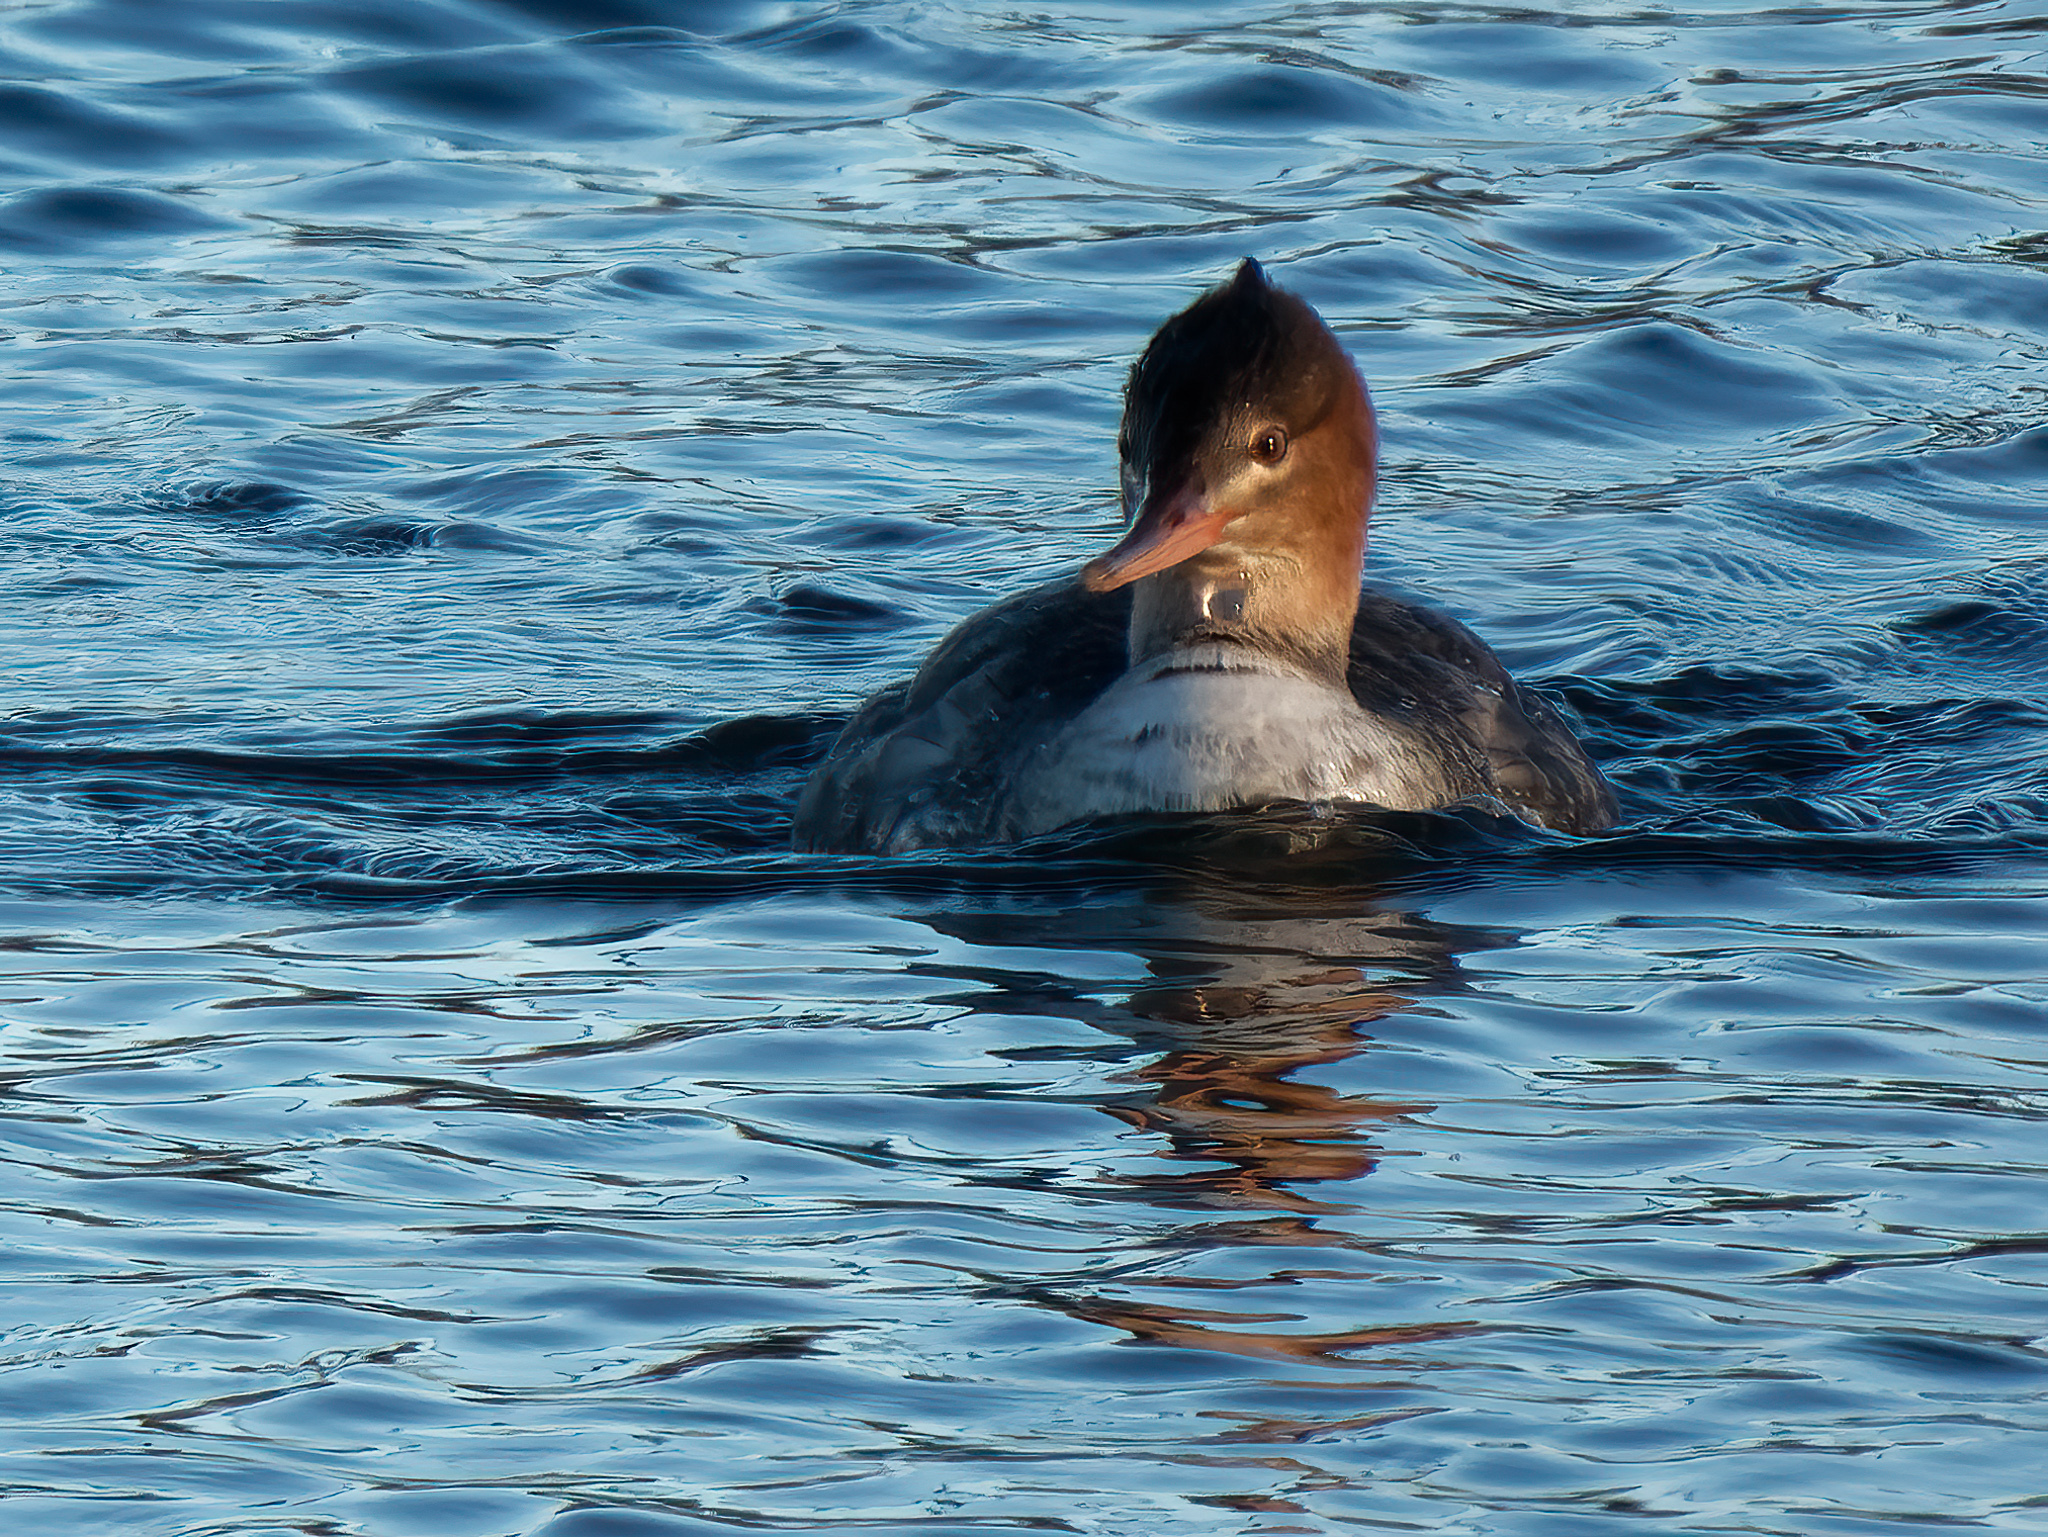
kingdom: Animalia
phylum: Chordata
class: Aves
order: Anseriformes
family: Anatidae
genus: Mergus
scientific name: Mergus serrator
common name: Red-breasted merganser
